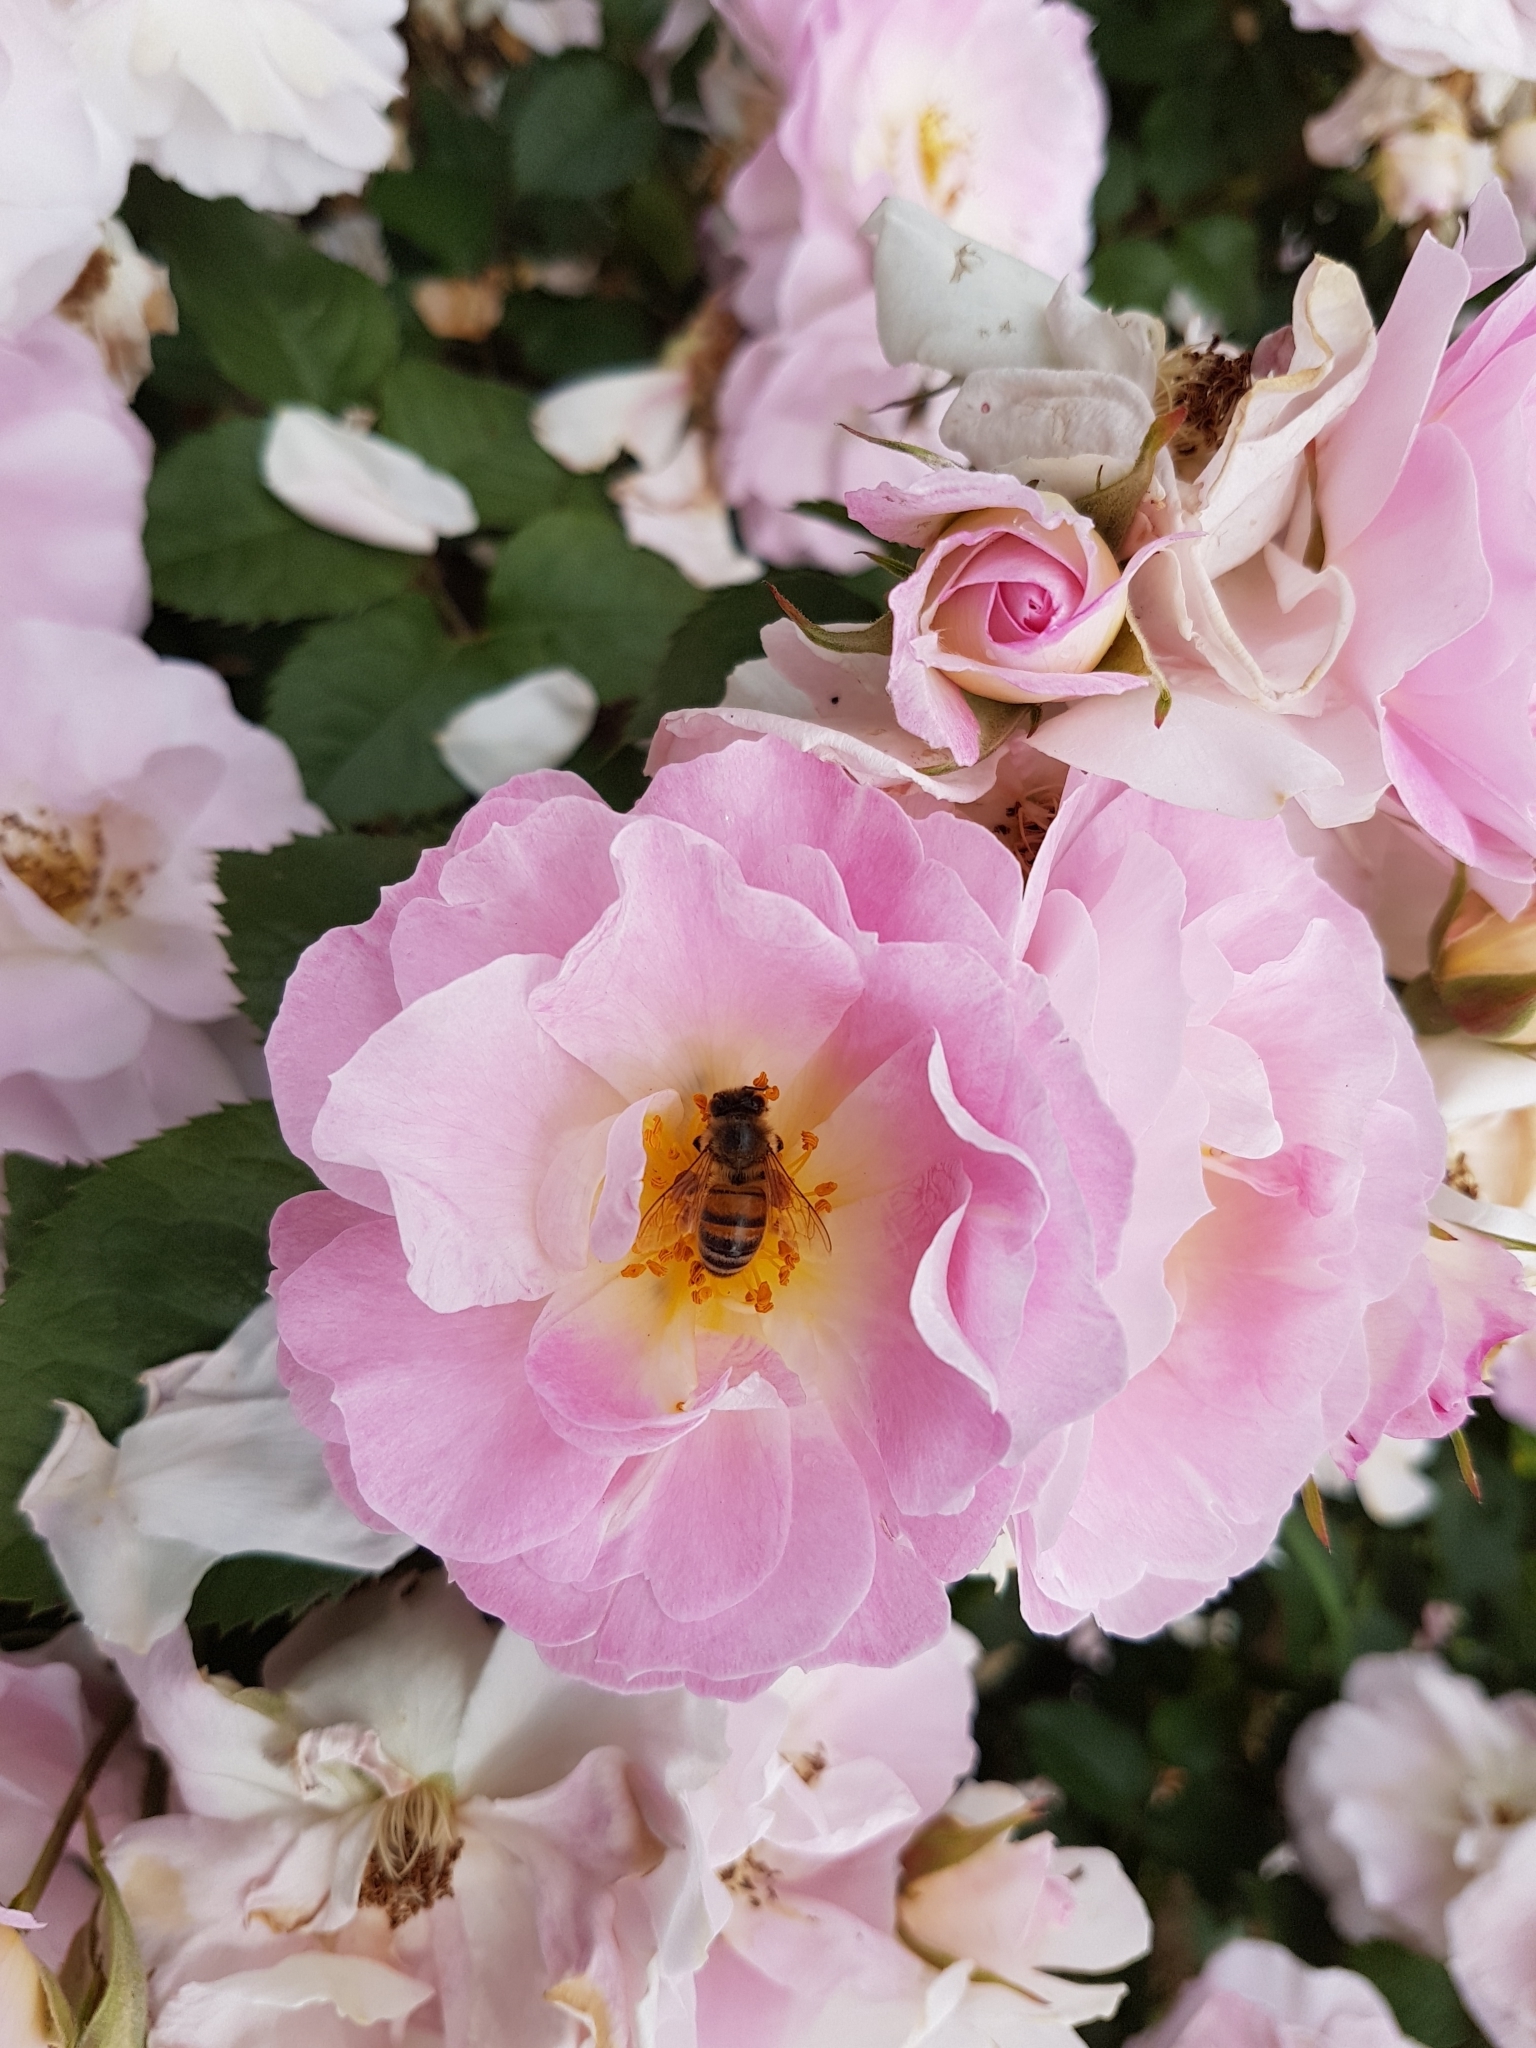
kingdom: Animalia
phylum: Arthropoda
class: Insecta
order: Hymenoptera
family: Apidae
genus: Apis
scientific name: Apis mellifera
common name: Honey bee
